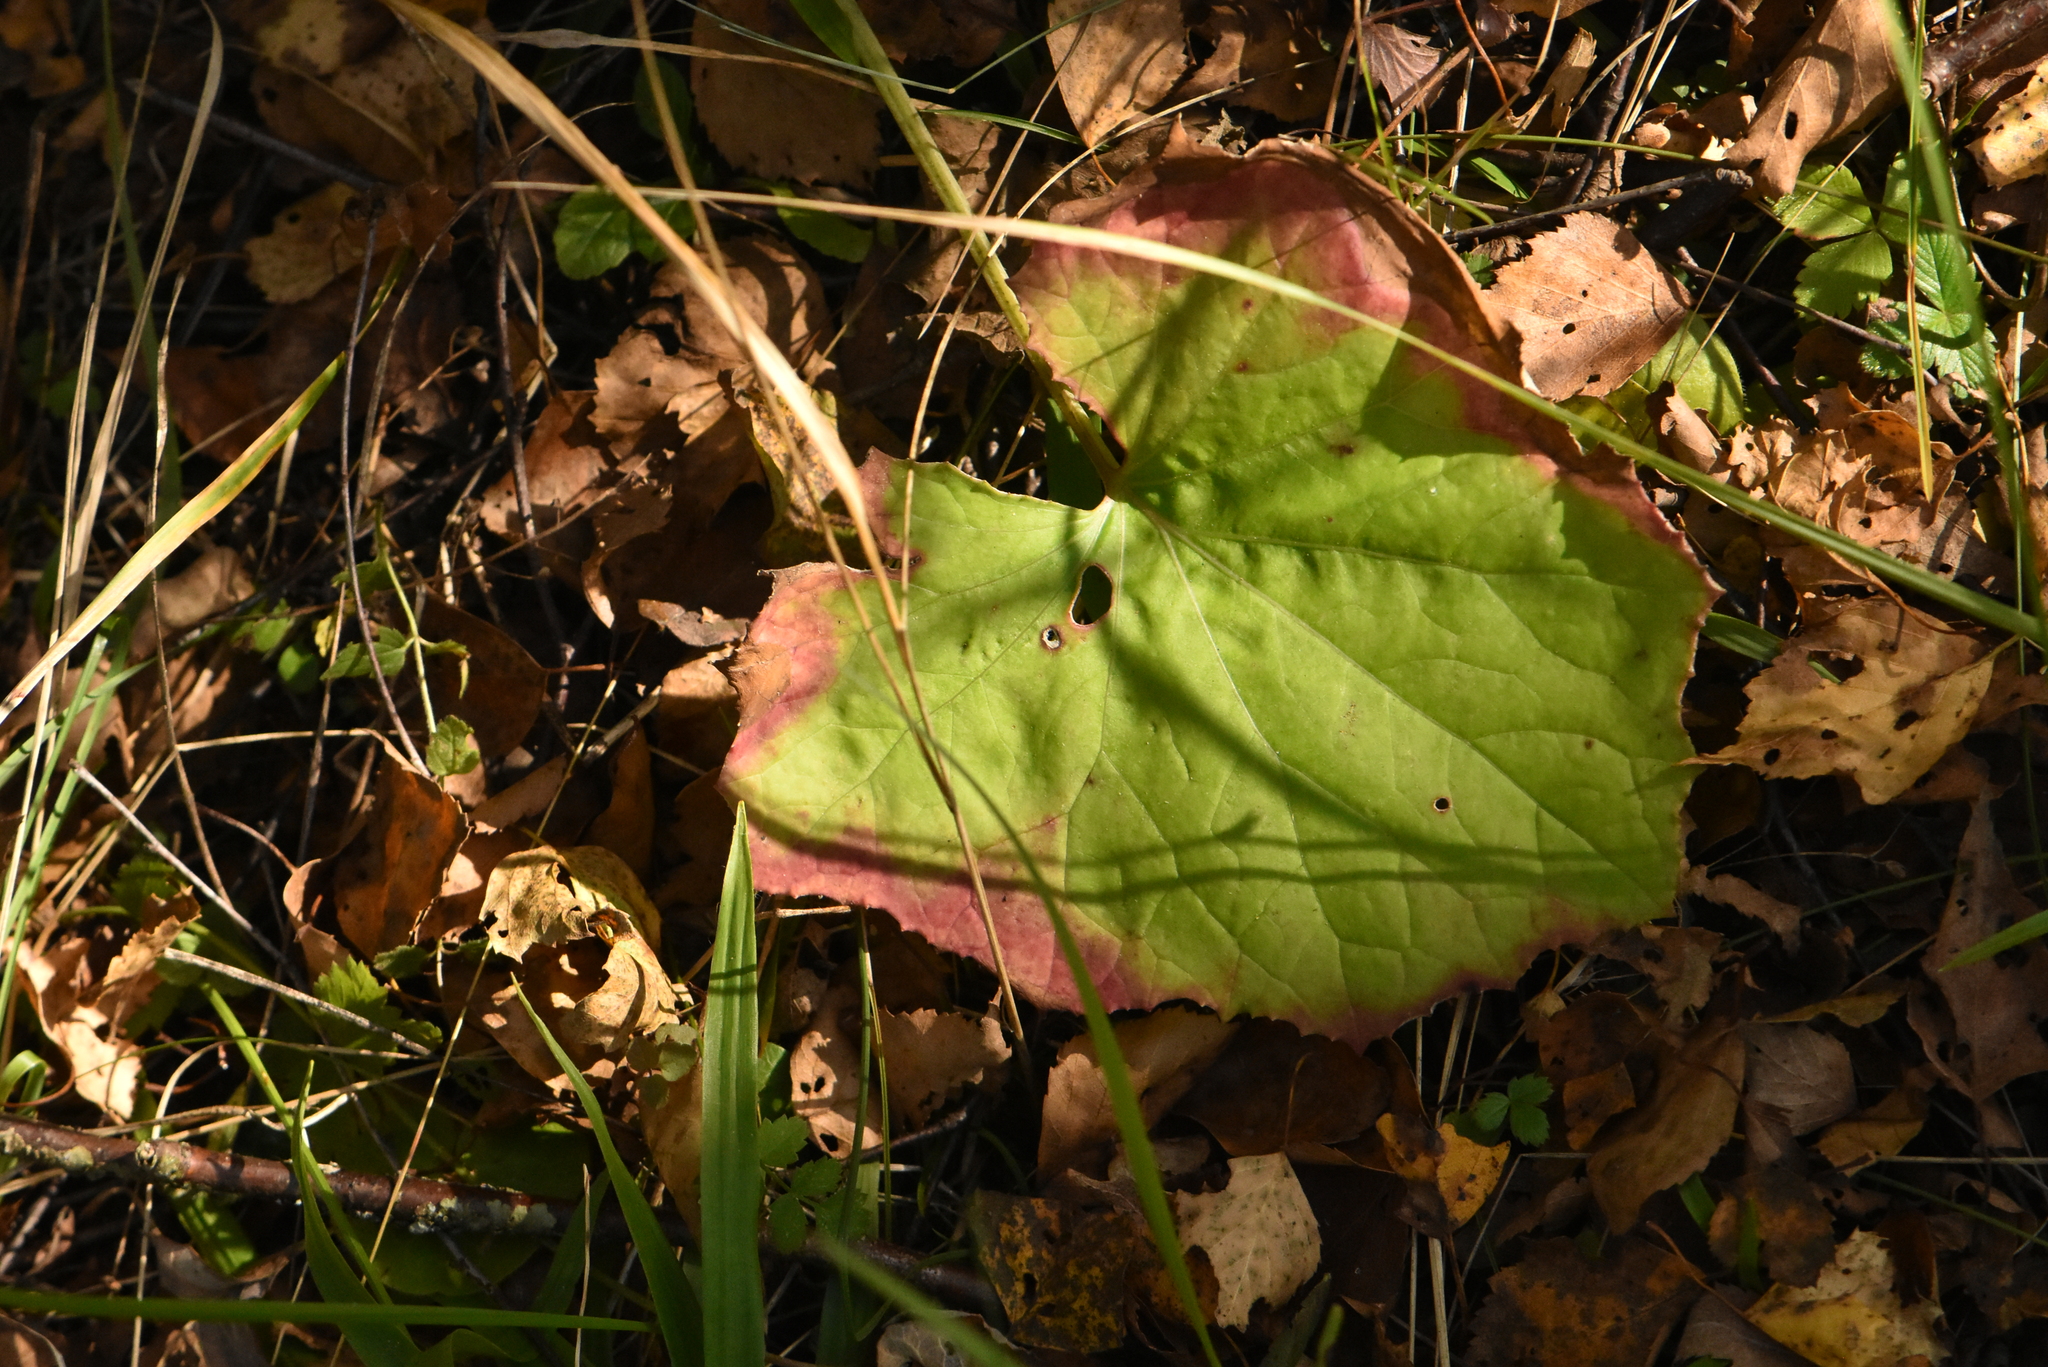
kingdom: Plantae
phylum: Tracheophyta
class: Magnoliopsida
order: Asterales
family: Asteraceae
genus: Tussilago
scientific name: Tussilago farfara
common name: Coltsfoot
